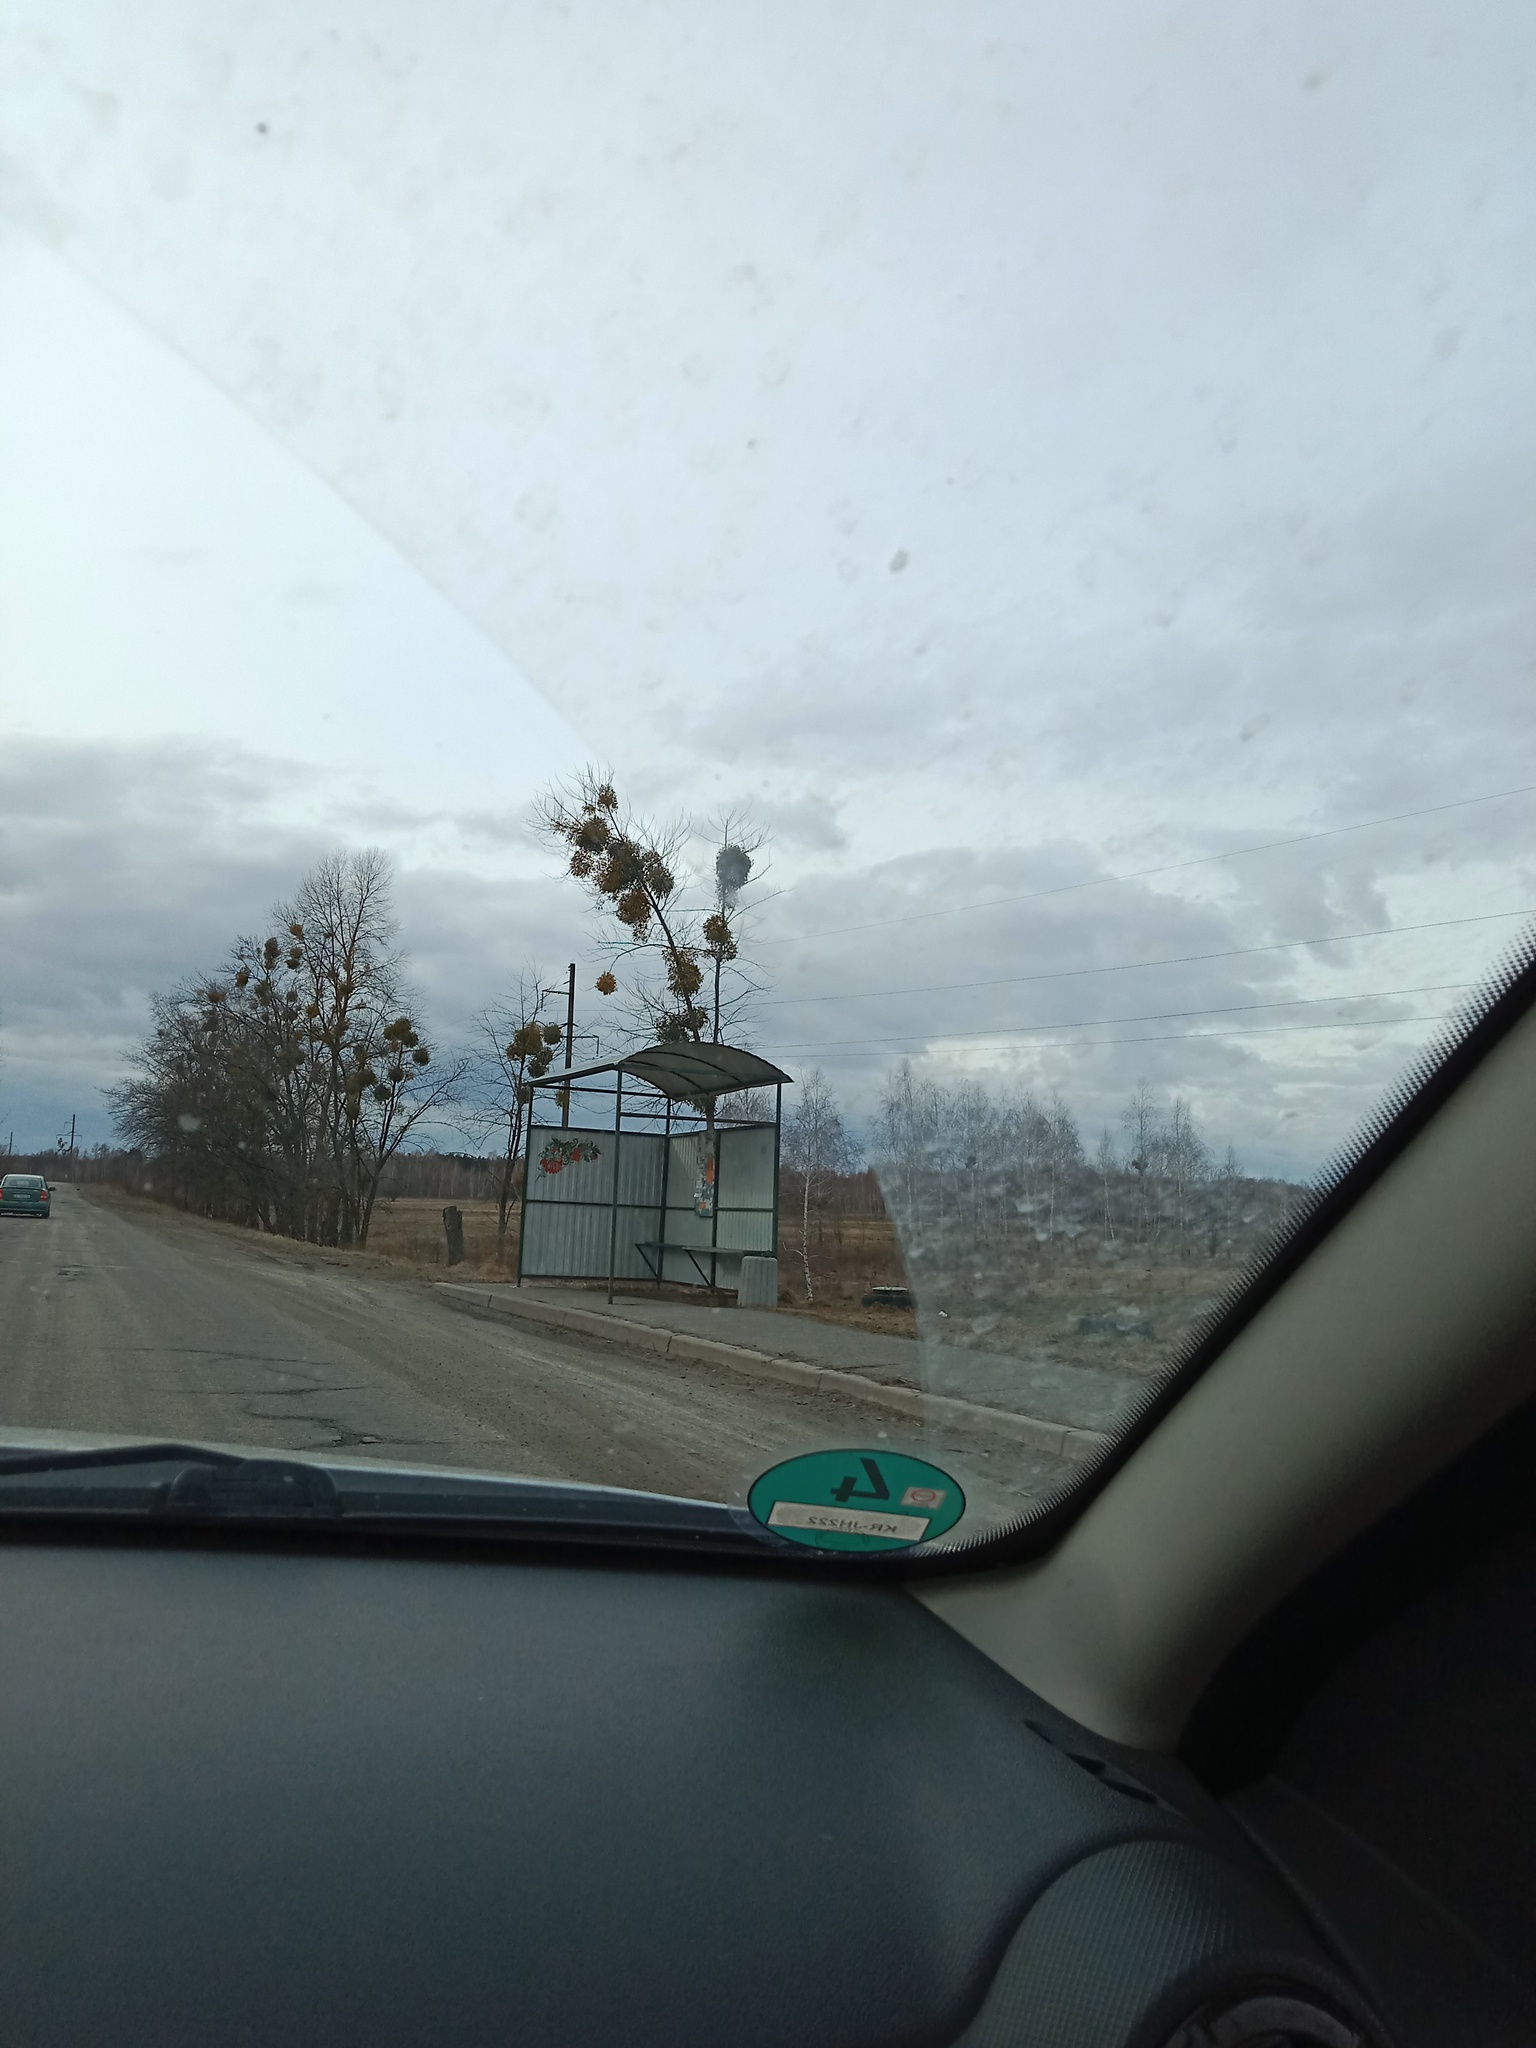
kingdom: Plantae
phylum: Tracheophyta
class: Magnoliopsida
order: Santalales
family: Viscaceae
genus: Viscum
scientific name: Viscum album
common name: Mistletoe
